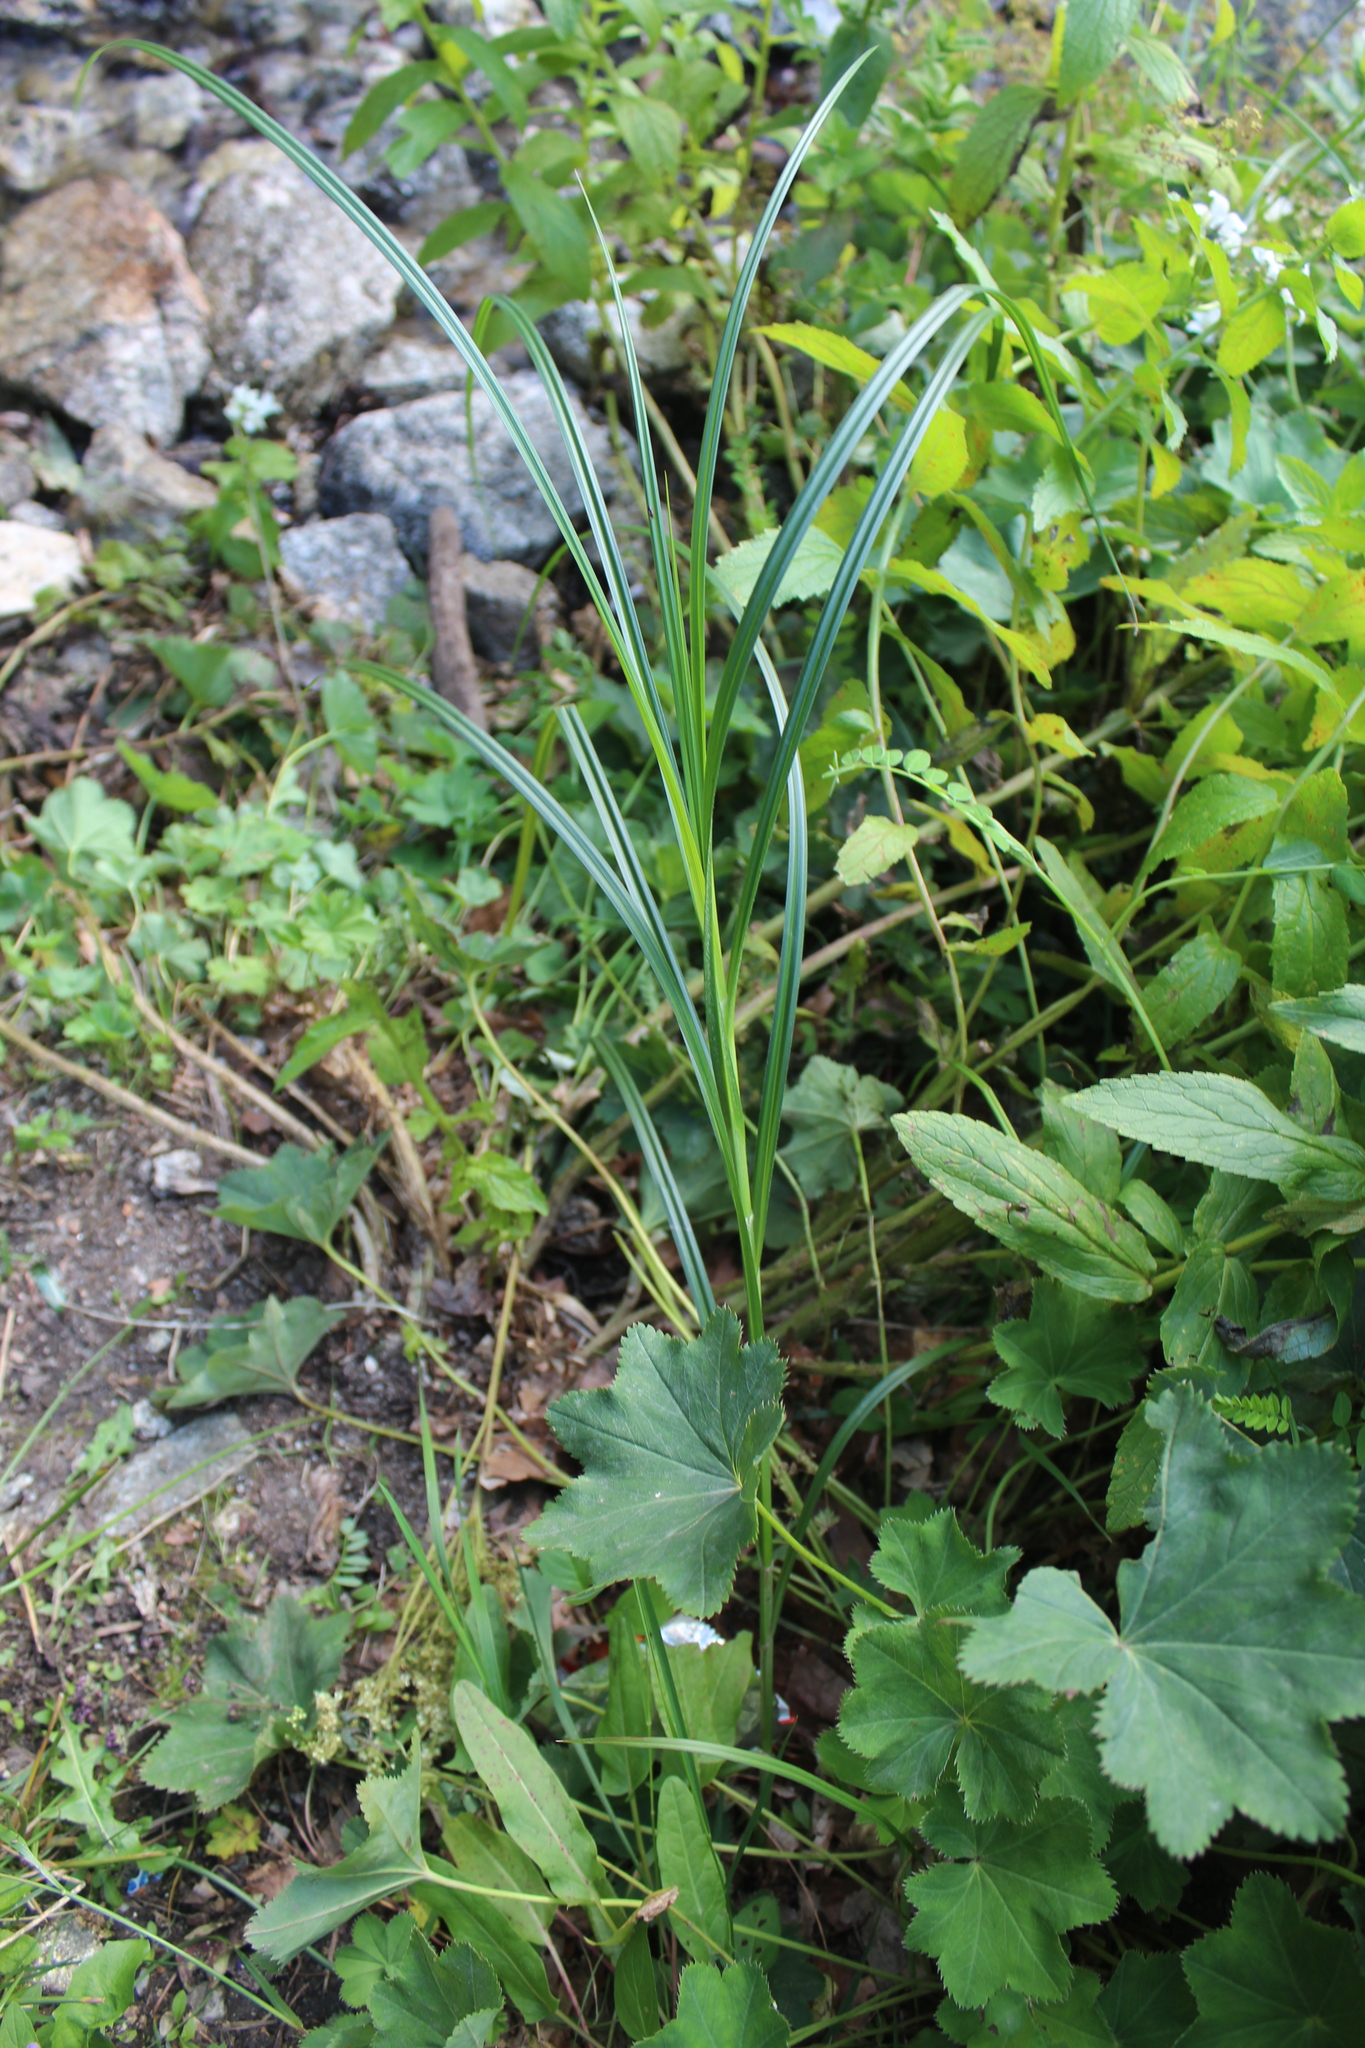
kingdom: Plantae
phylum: Tracheophyta
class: Liliopsida
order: Poales
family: Cyperaceae
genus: Carex
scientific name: Carex hirta
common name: Hairy sedge
